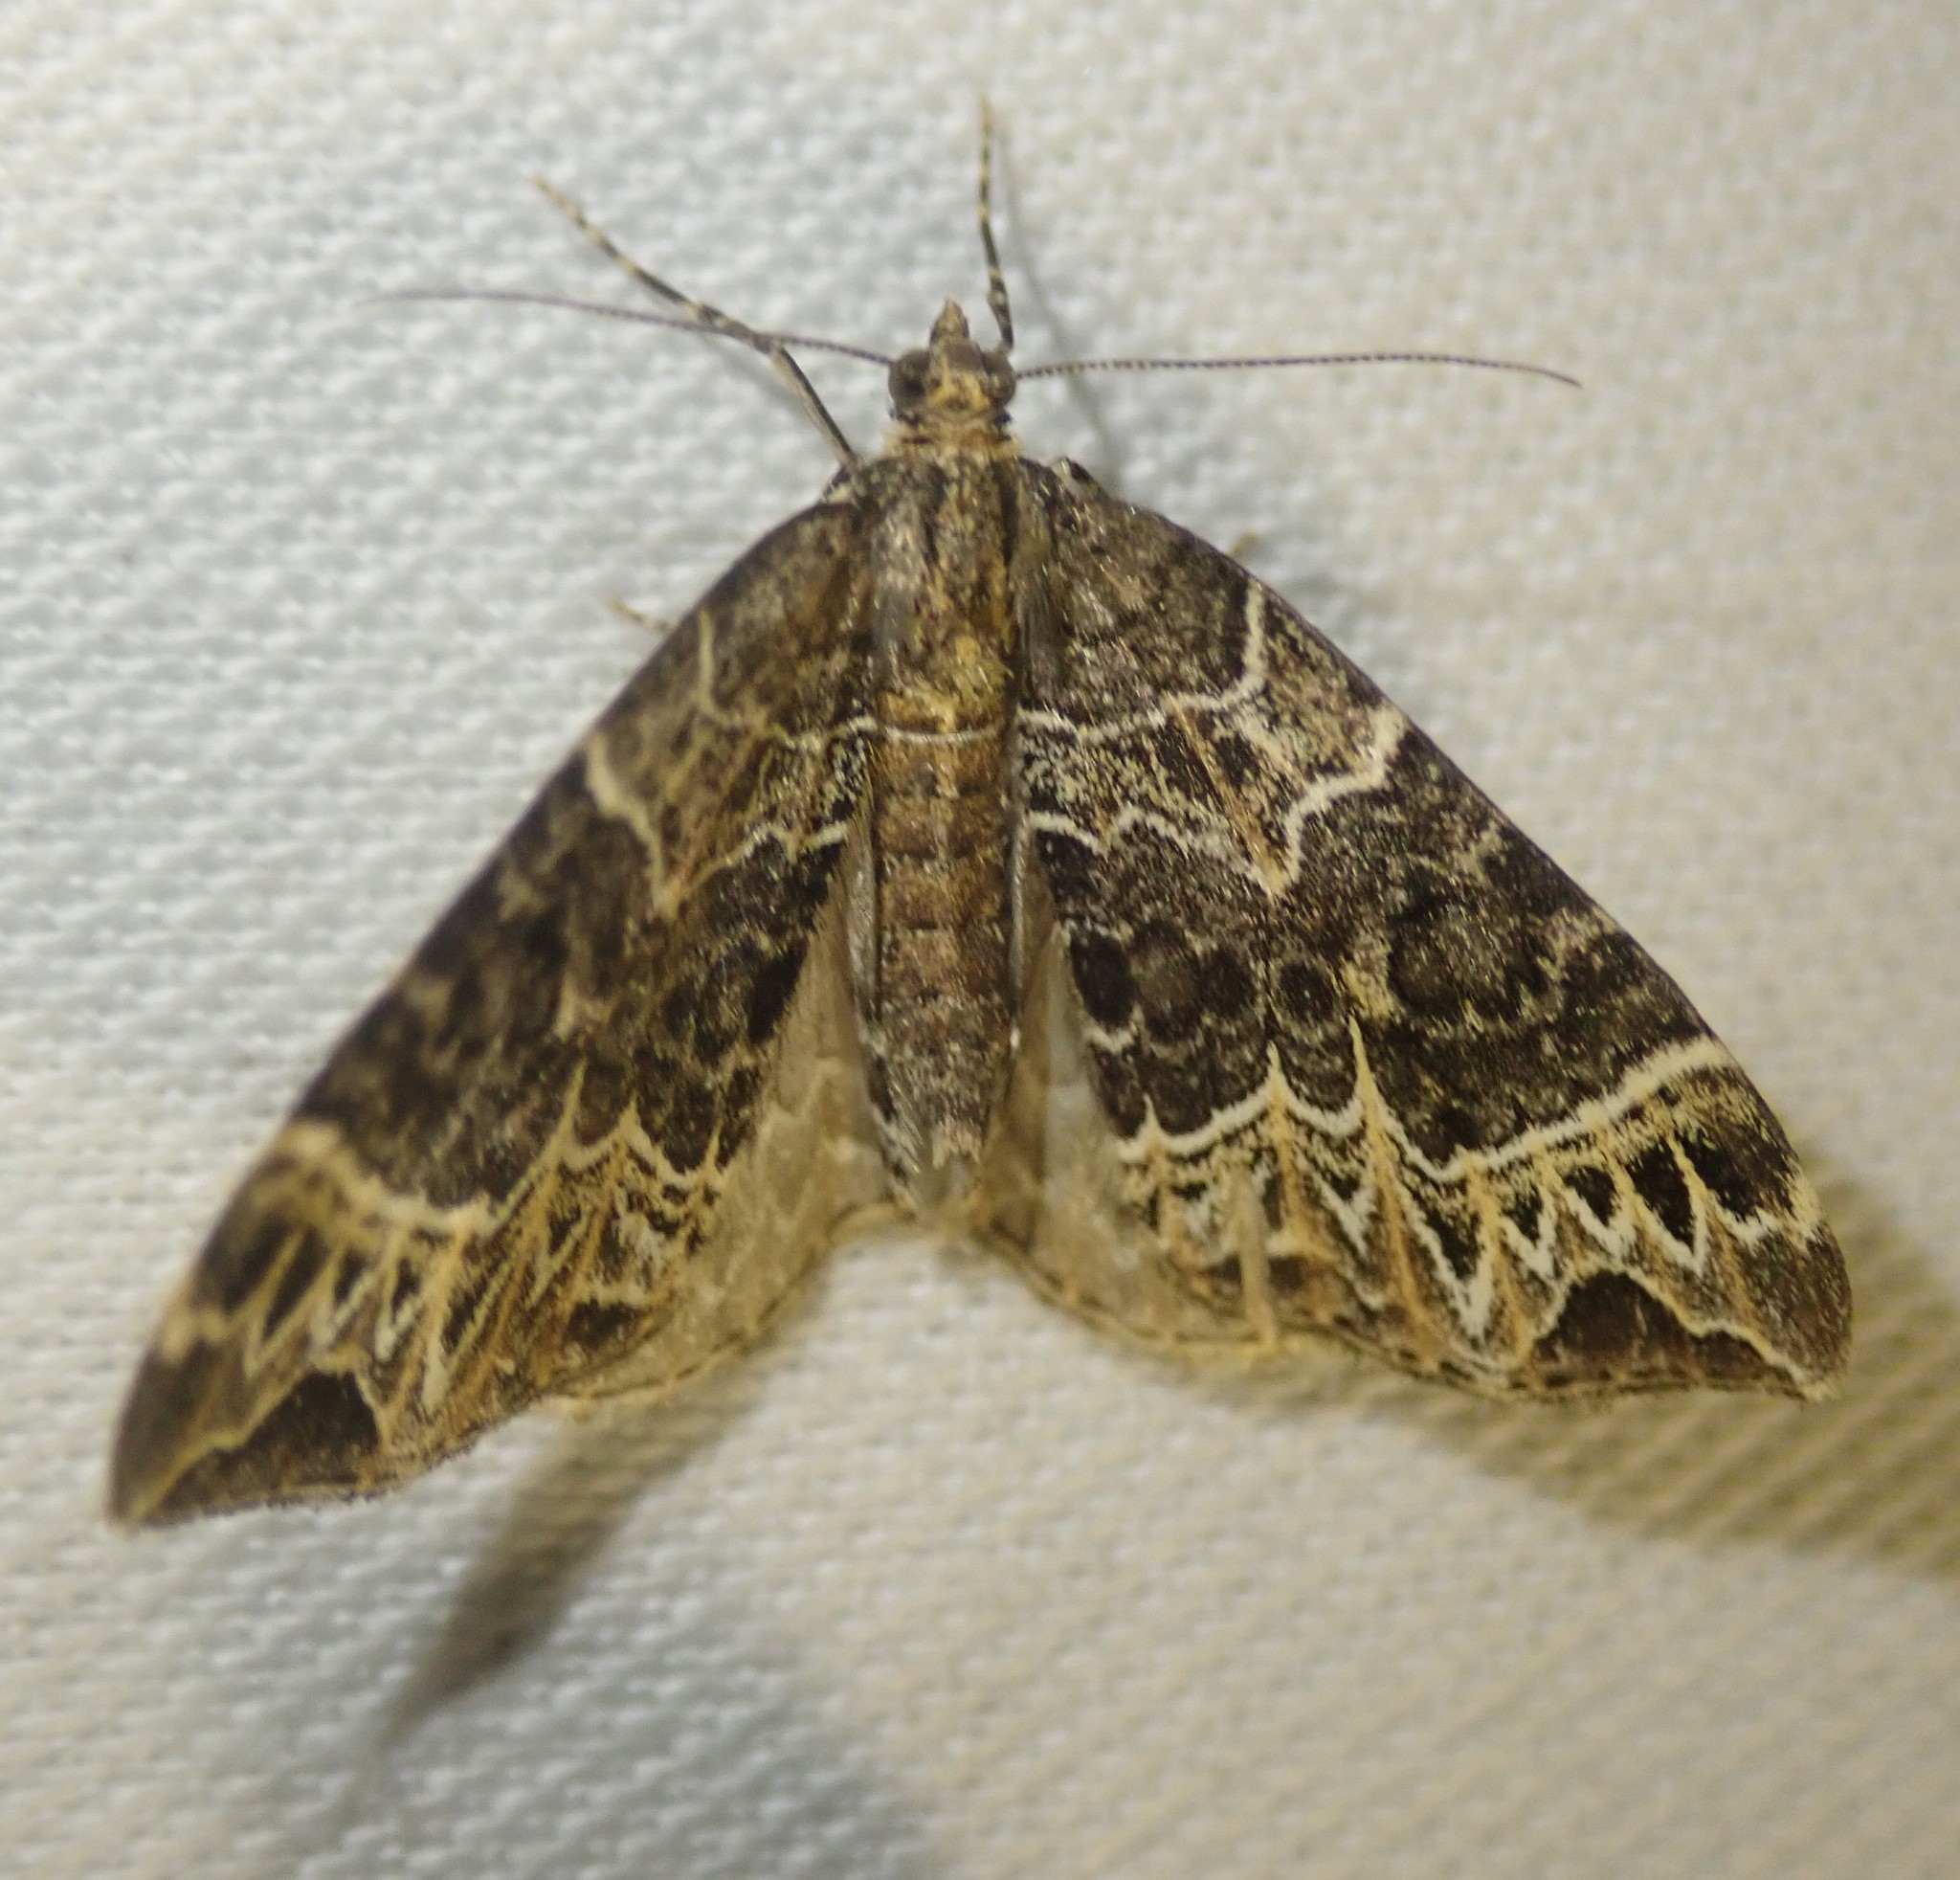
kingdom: Animalia
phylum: Arthropoda
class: Insecta
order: Lepidoptera
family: Geometridae
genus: Ecliptopera
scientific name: Ecliptopera silaceata
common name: Small phoenix
